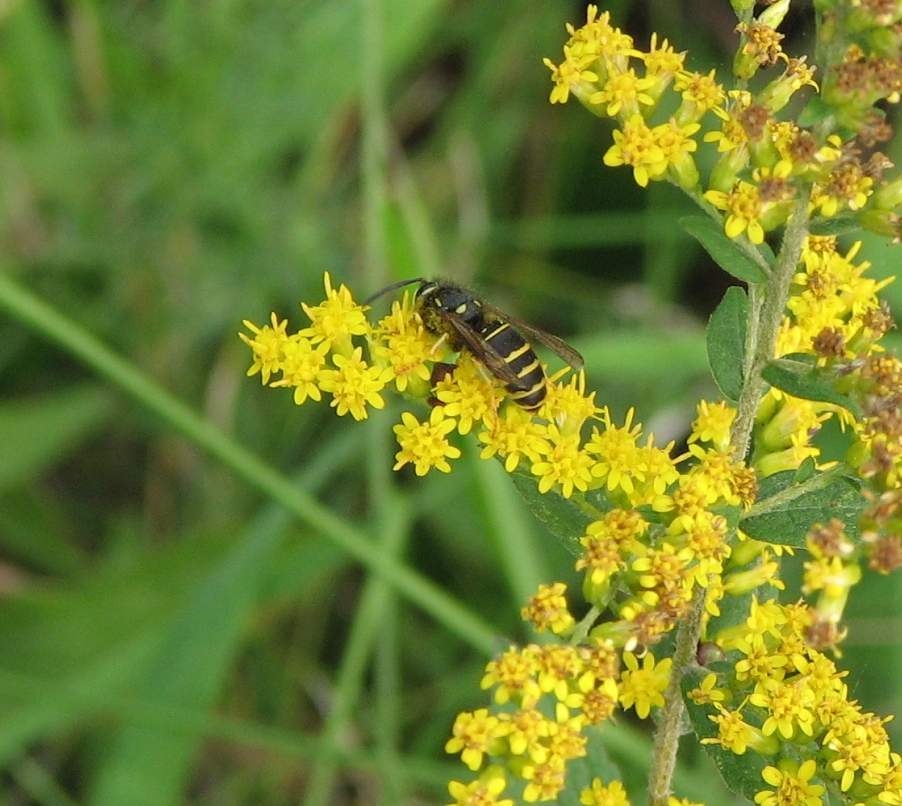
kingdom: Animalia
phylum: Arthropoda
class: Insecta
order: Hymenoptera
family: Vespidae
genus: Vespula
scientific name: Vespula
